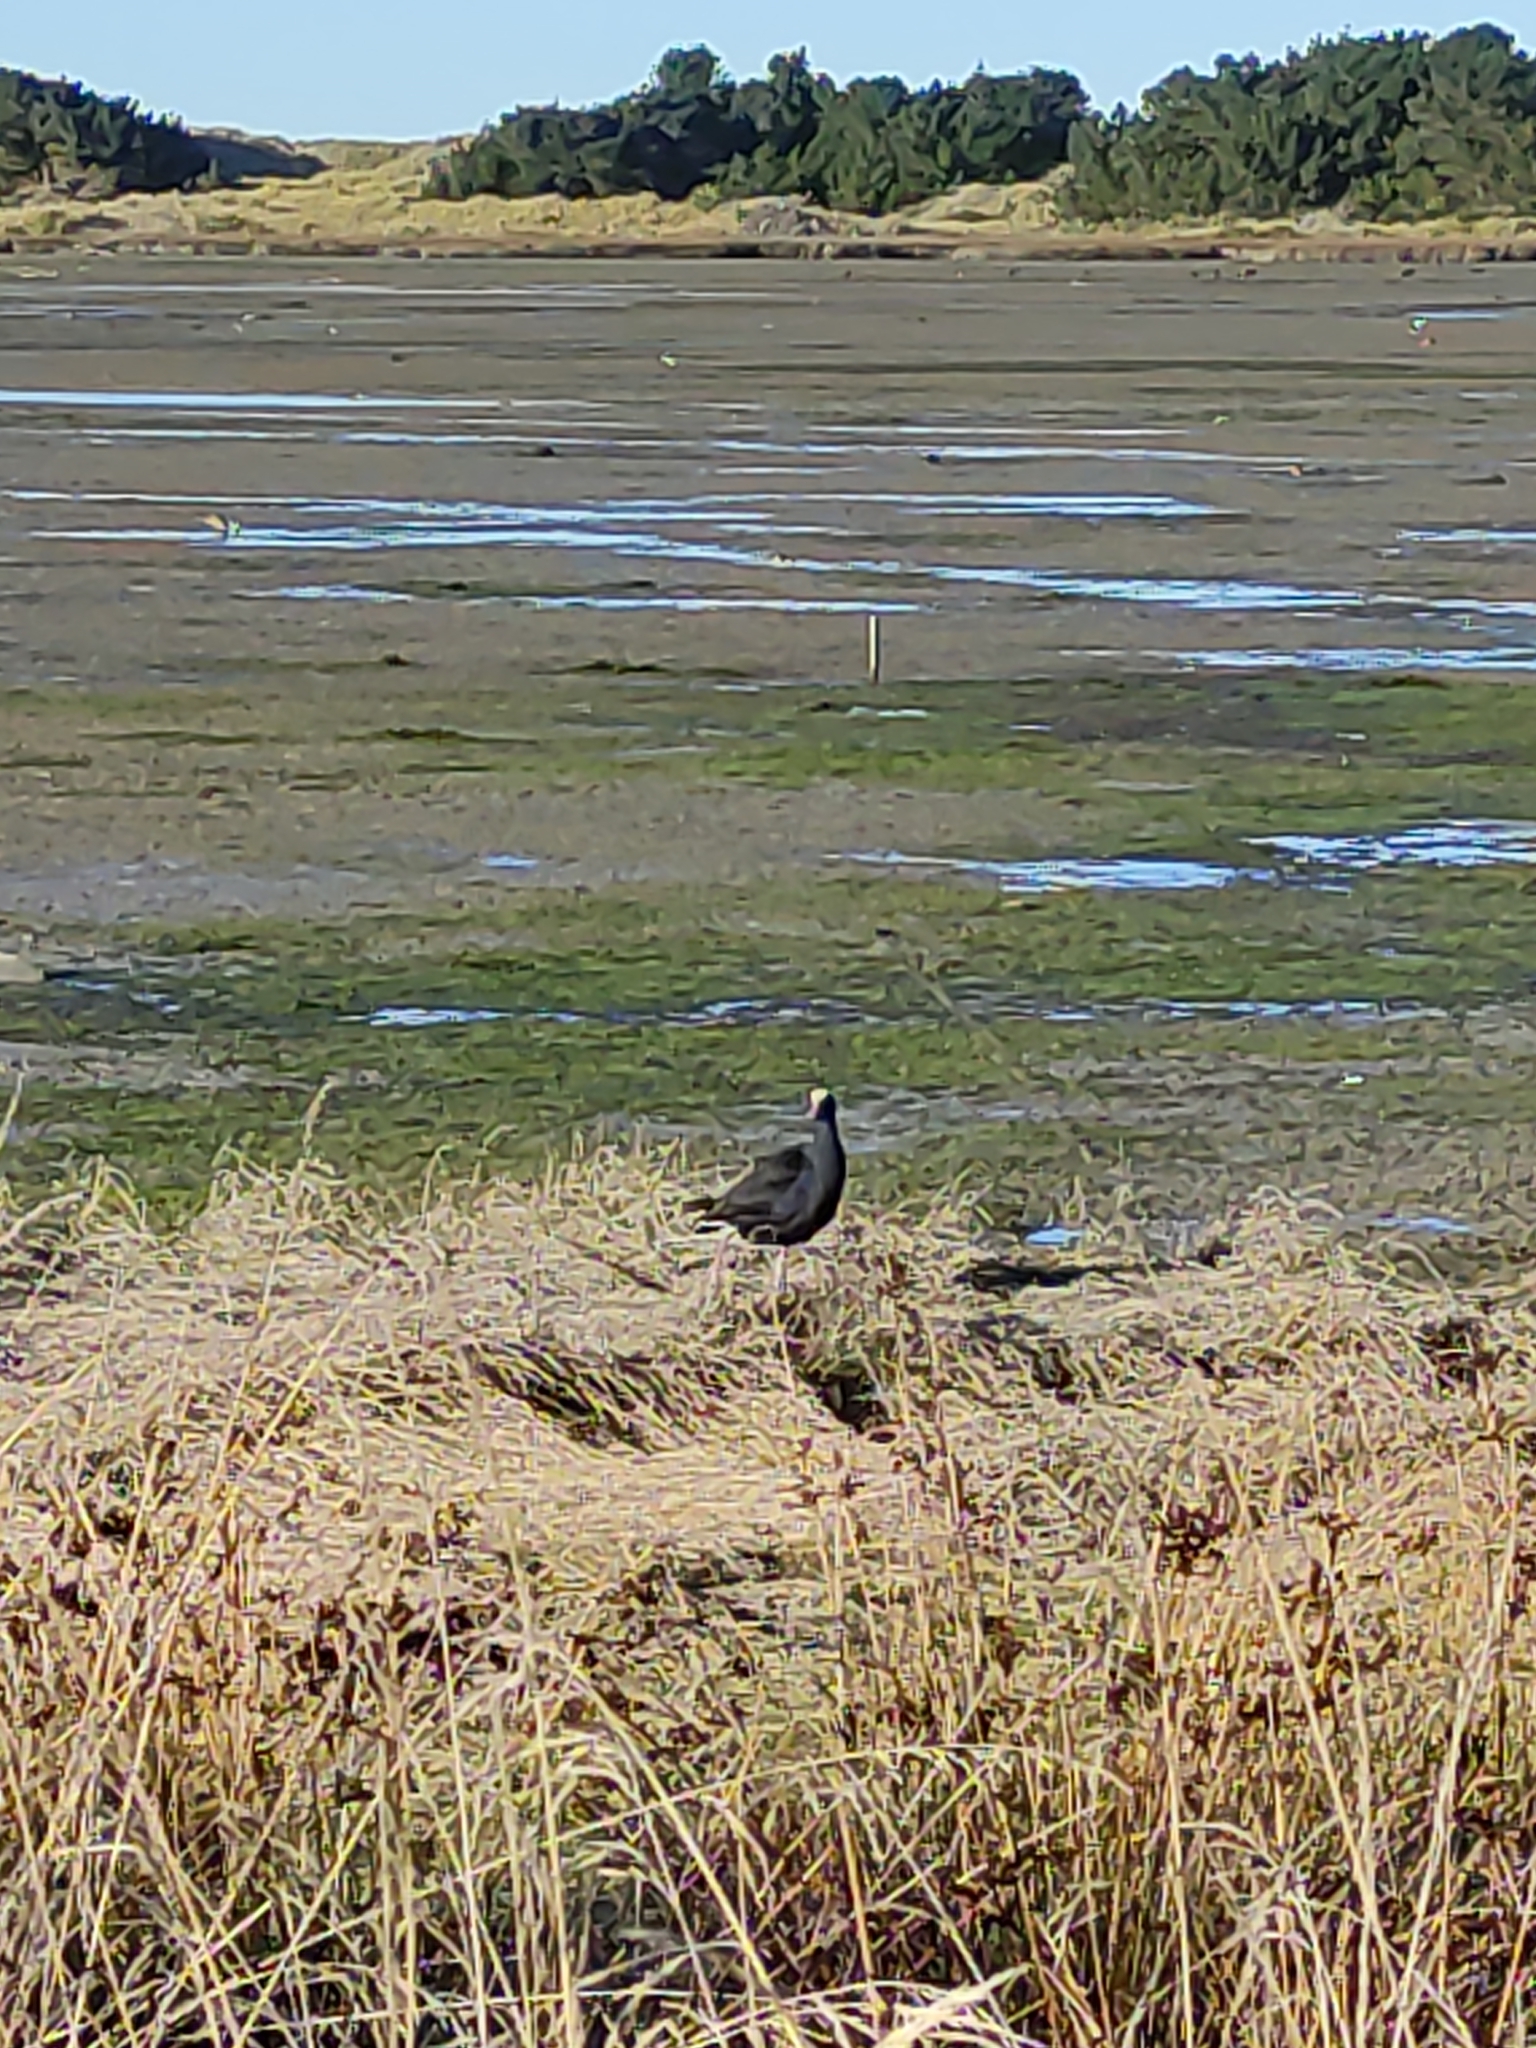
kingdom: Animalia
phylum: Chordata
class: Aves
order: Gruiformes
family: Rallidae
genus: Porphyrio
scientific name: Porphyrio melanotus
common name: Australasian swamphen
